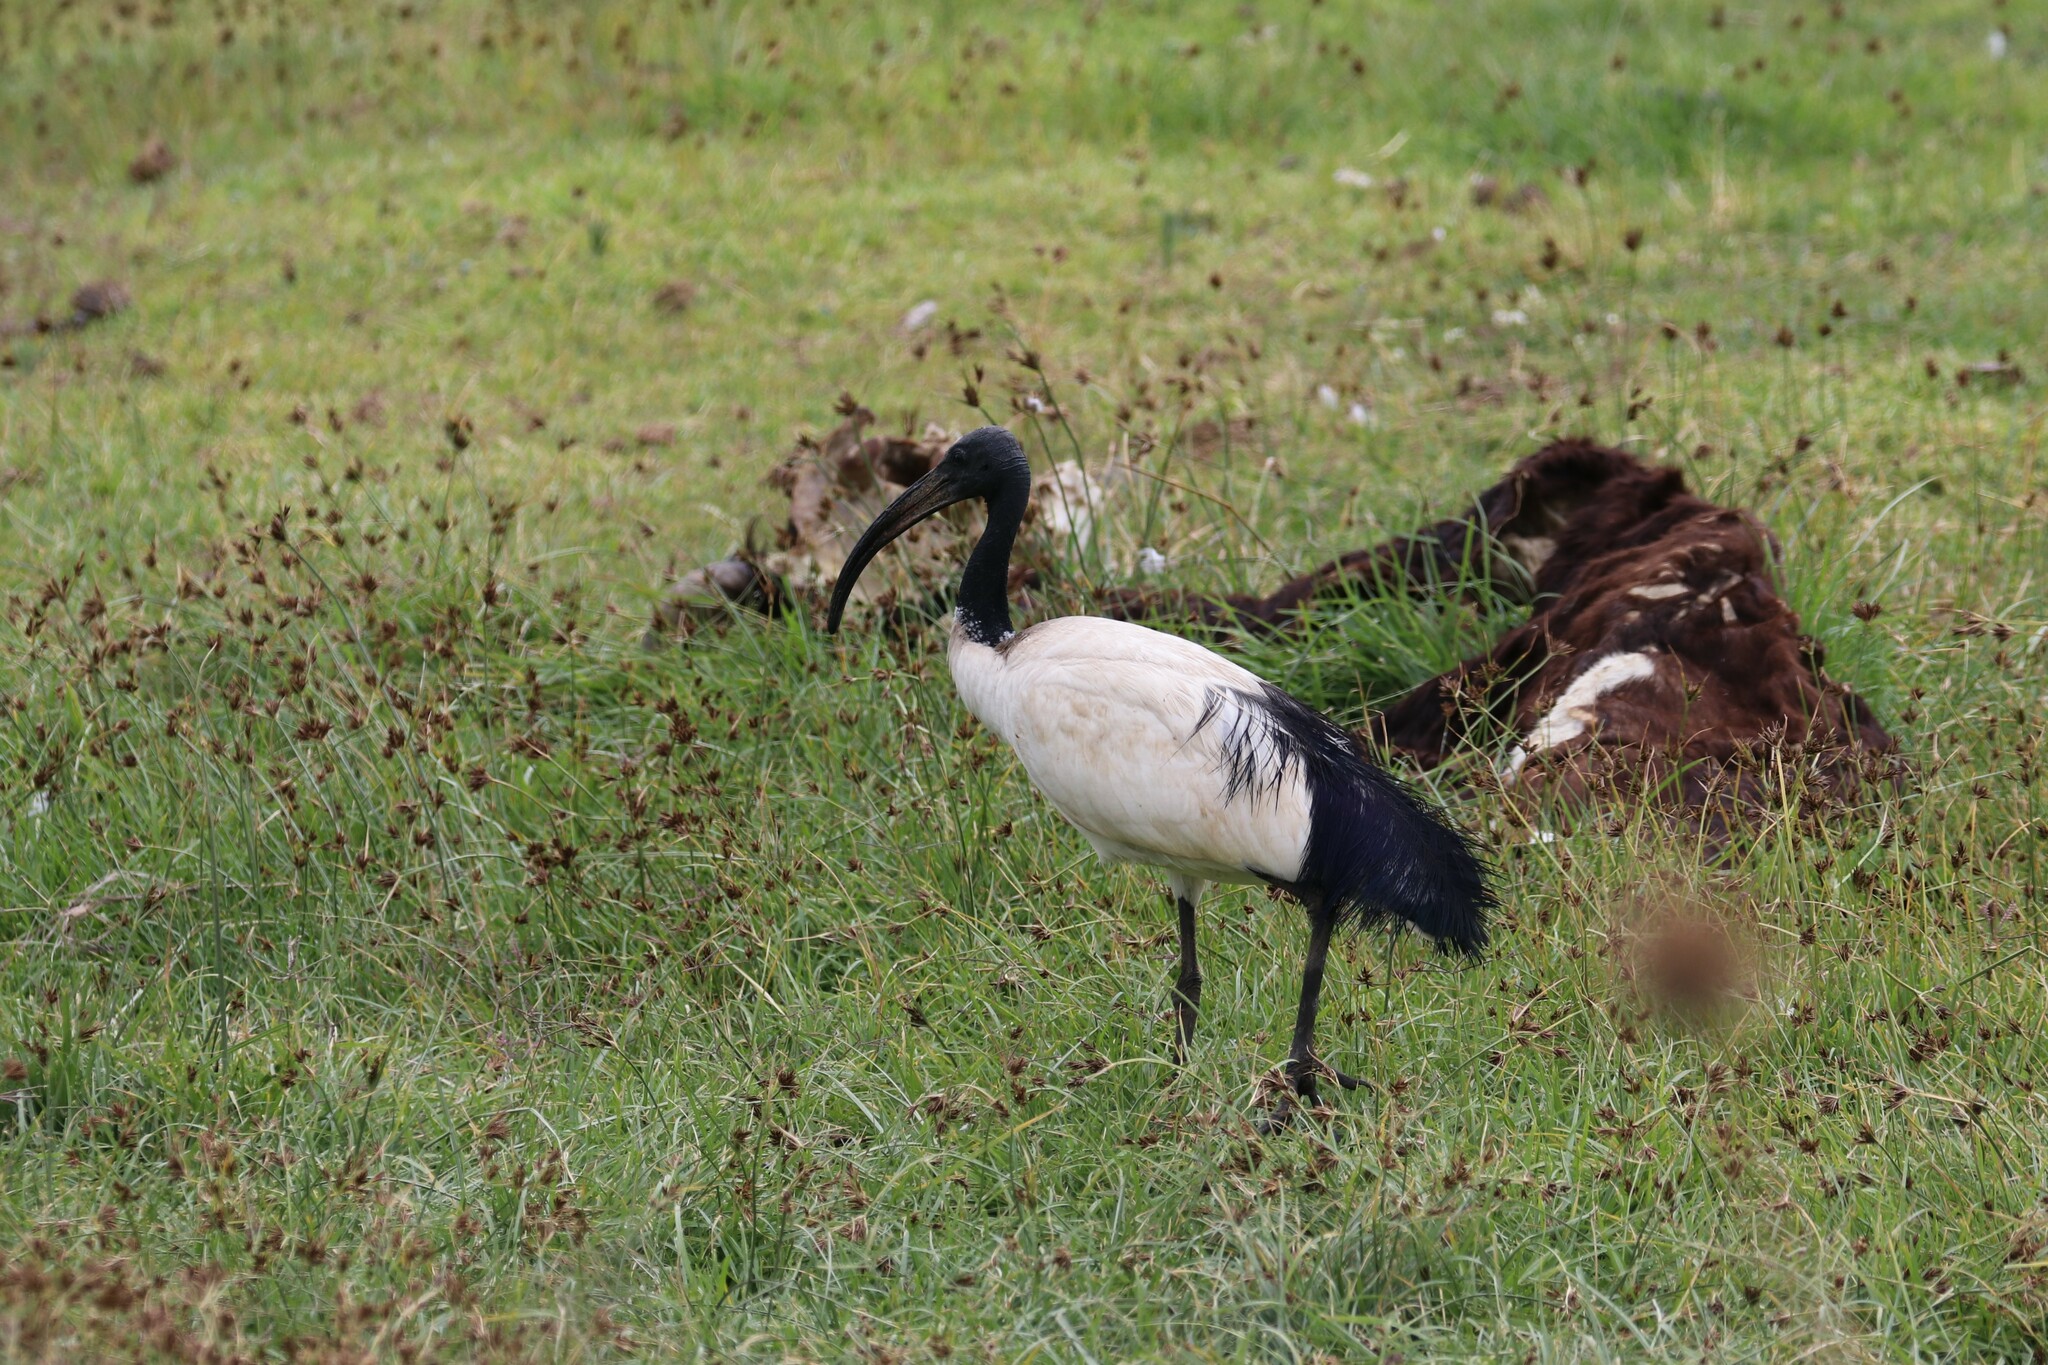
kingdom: Animalia
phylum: Chordata
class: Aves
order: Pelecaniformes
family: Threskiornithidae
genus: Threskiornis
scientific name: Threskiornis aethiopicus
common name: Sacred ibis
